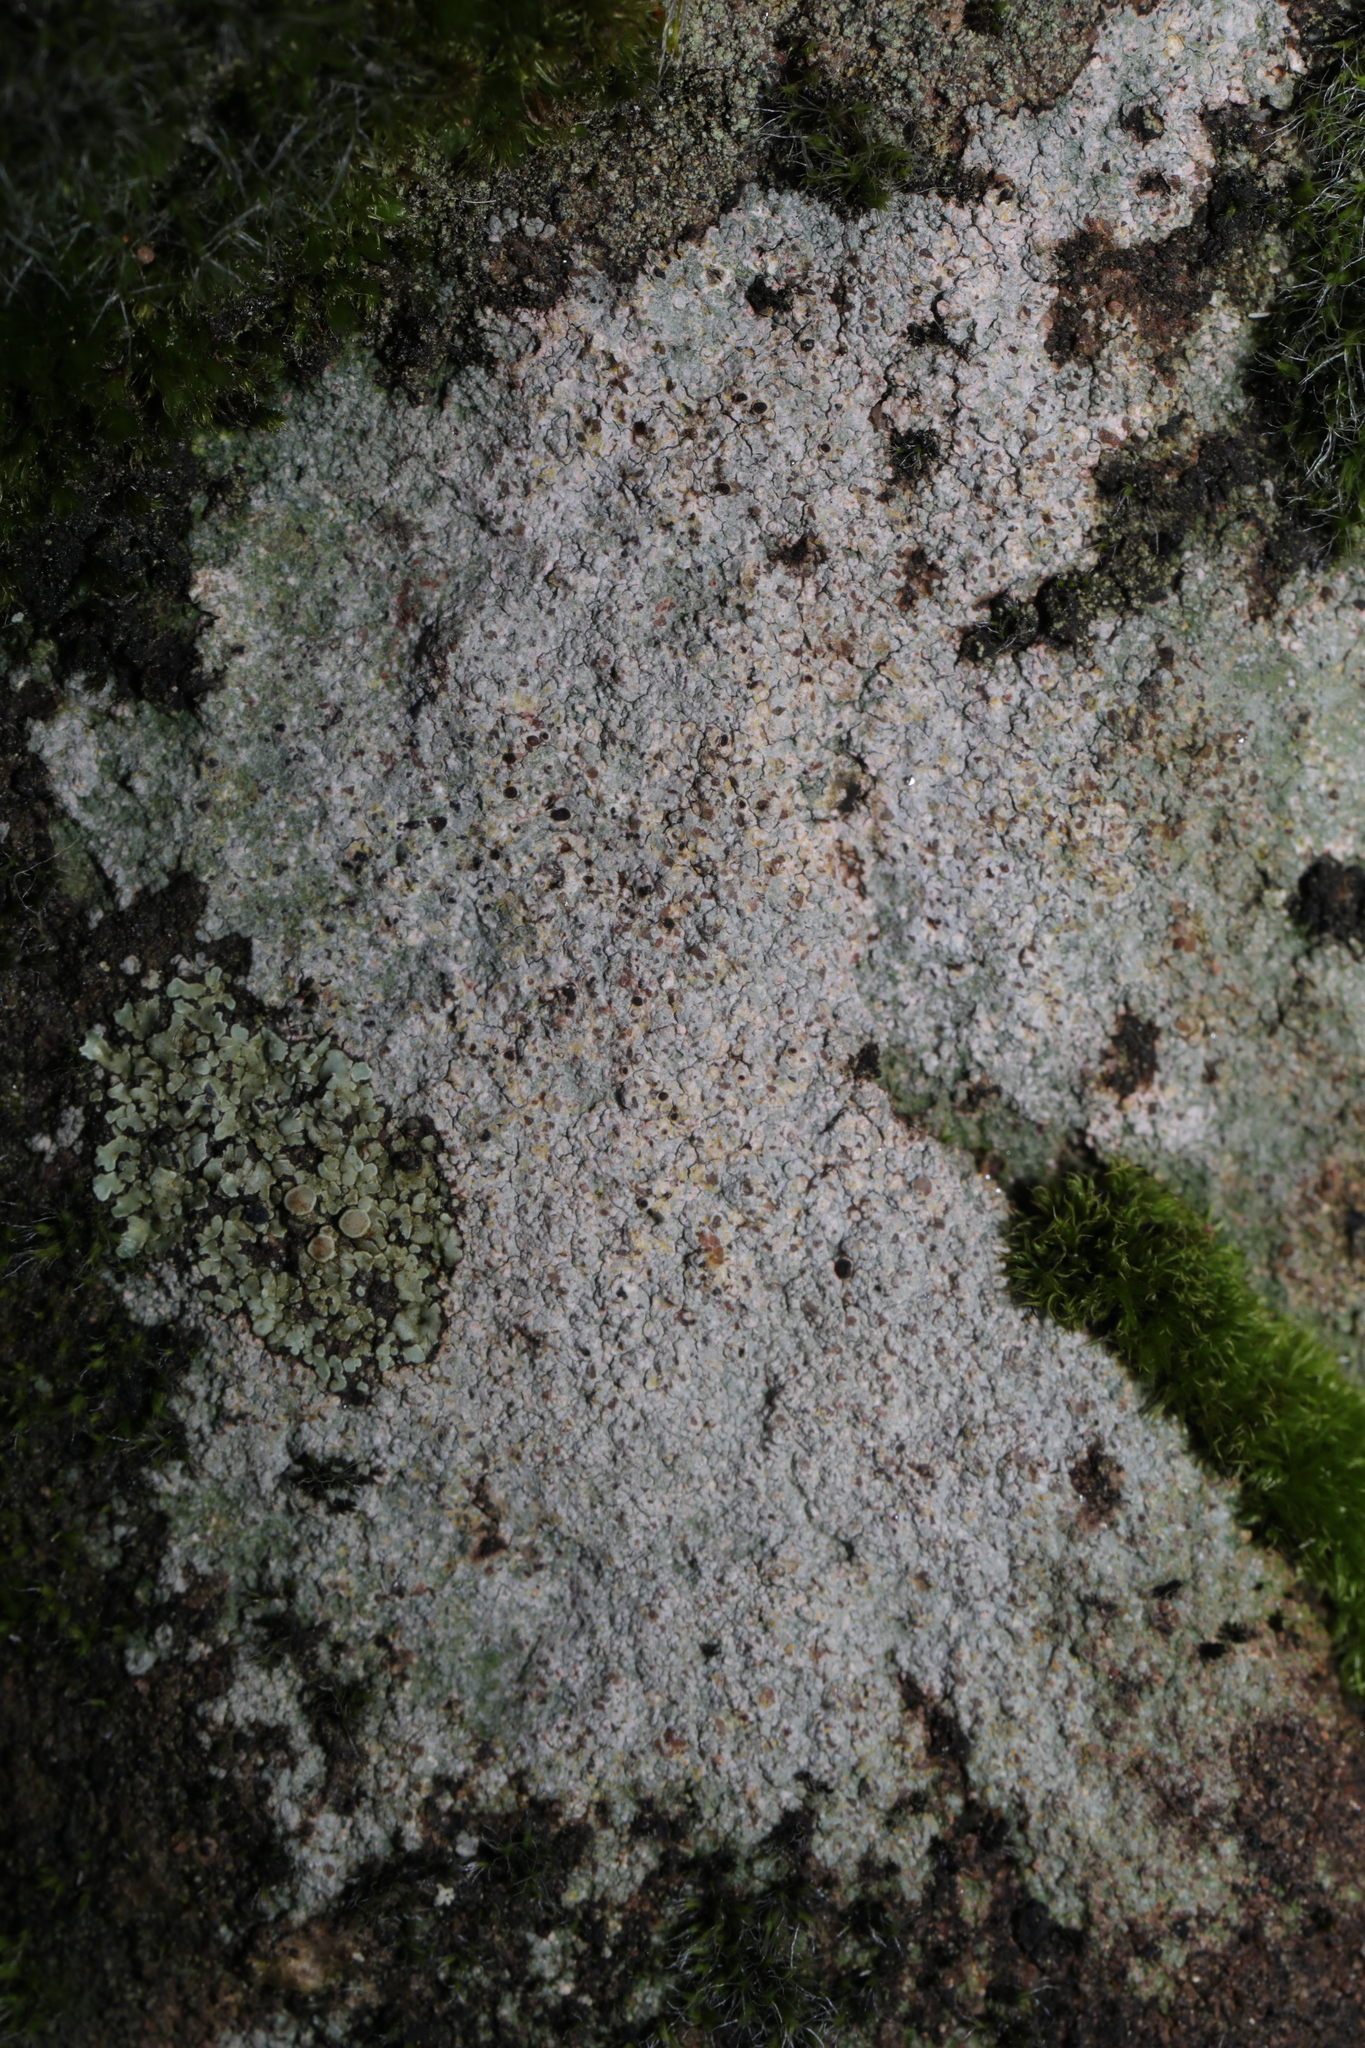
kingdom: Fungi
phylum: Ascomycota
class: Lecanoromycetes
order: Baeomycetales
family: Trapeliaceae
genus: Trapelia
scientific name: Trapelia
